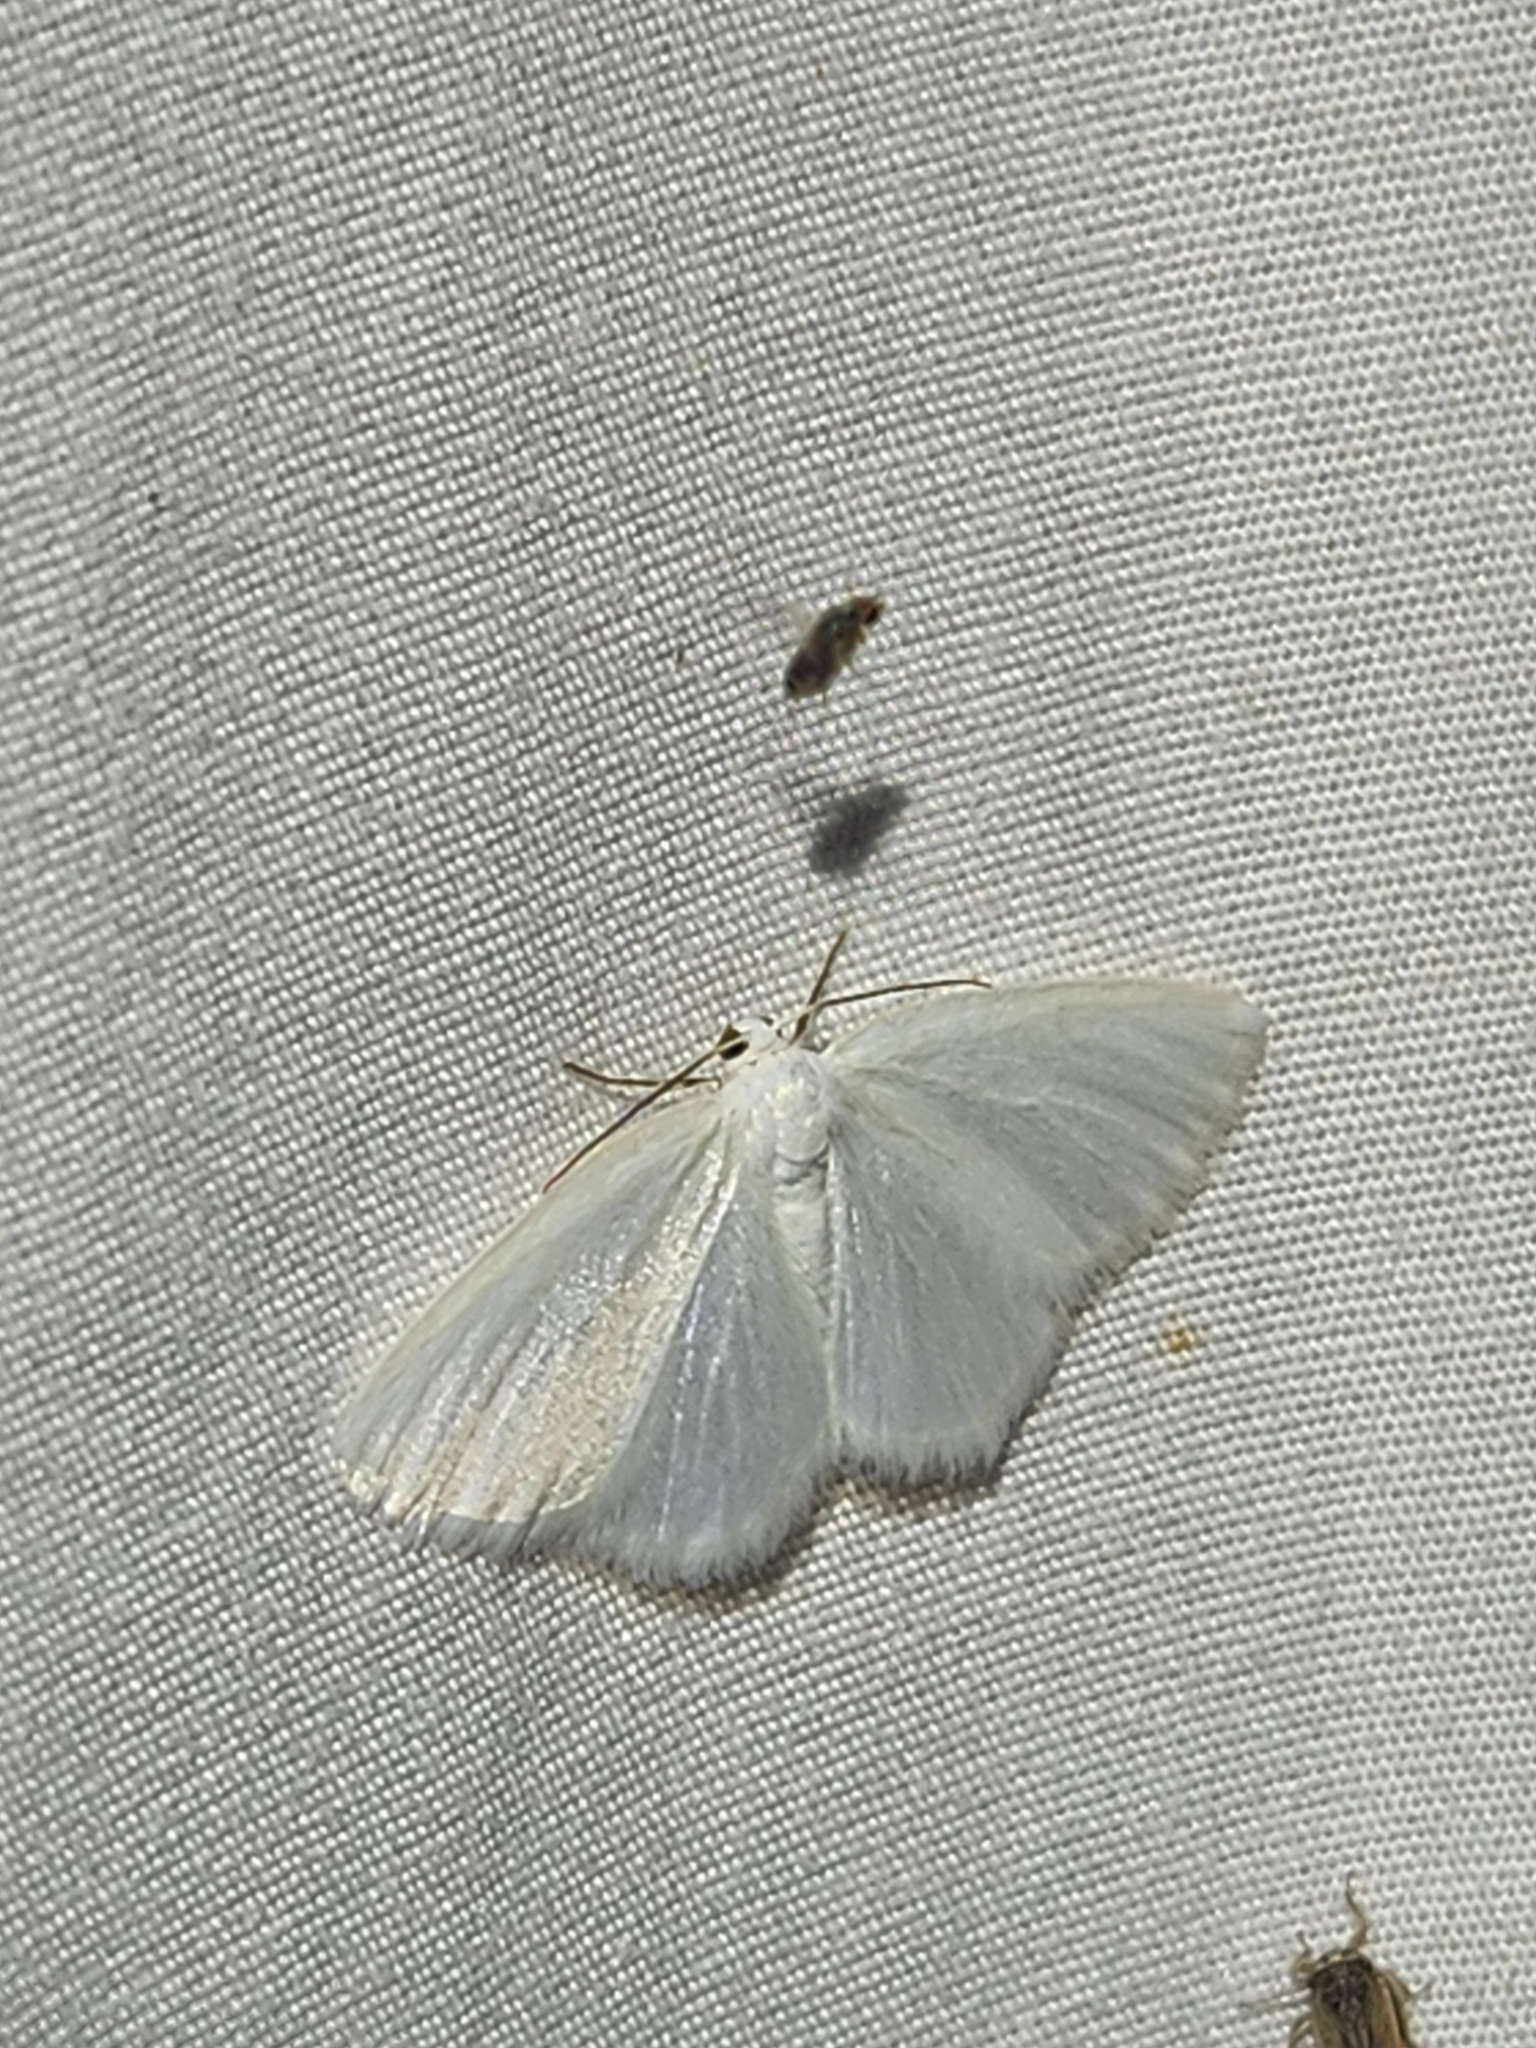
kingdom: Animalia
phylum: Arthropoda
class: Insecta
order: Lepidoptera
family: Geometridae
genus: Lomographa
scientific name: Lomographa vestaliata
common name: White spring moth
